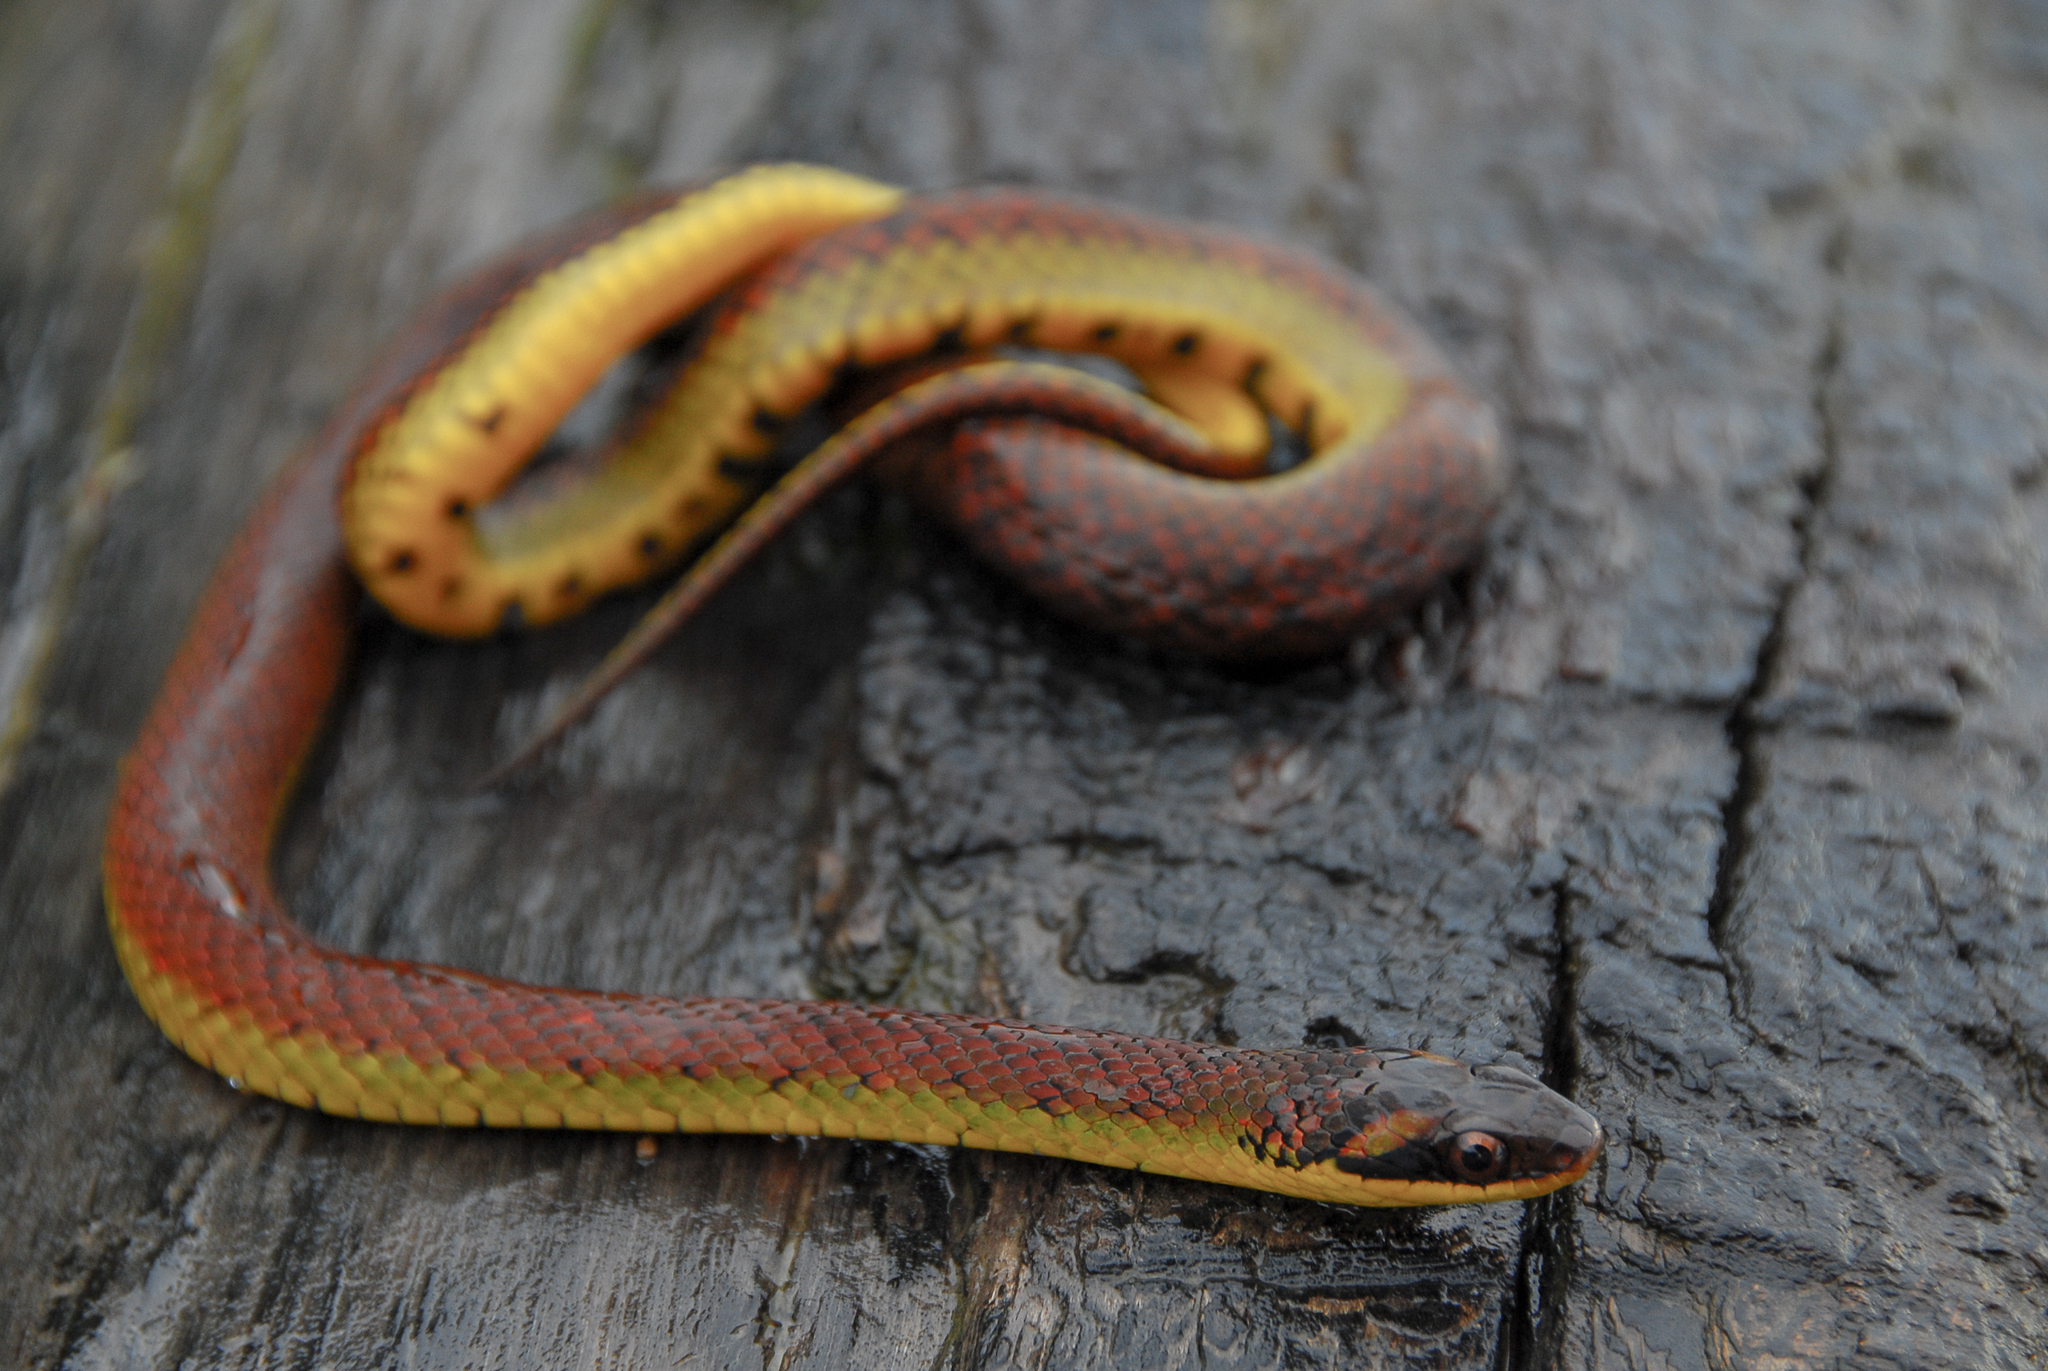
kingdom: Animalia
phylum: Chordata
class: Squamata
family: Colubridae
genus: Erythrolamprus
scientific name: Erythrolamprus dorsocorallinus
